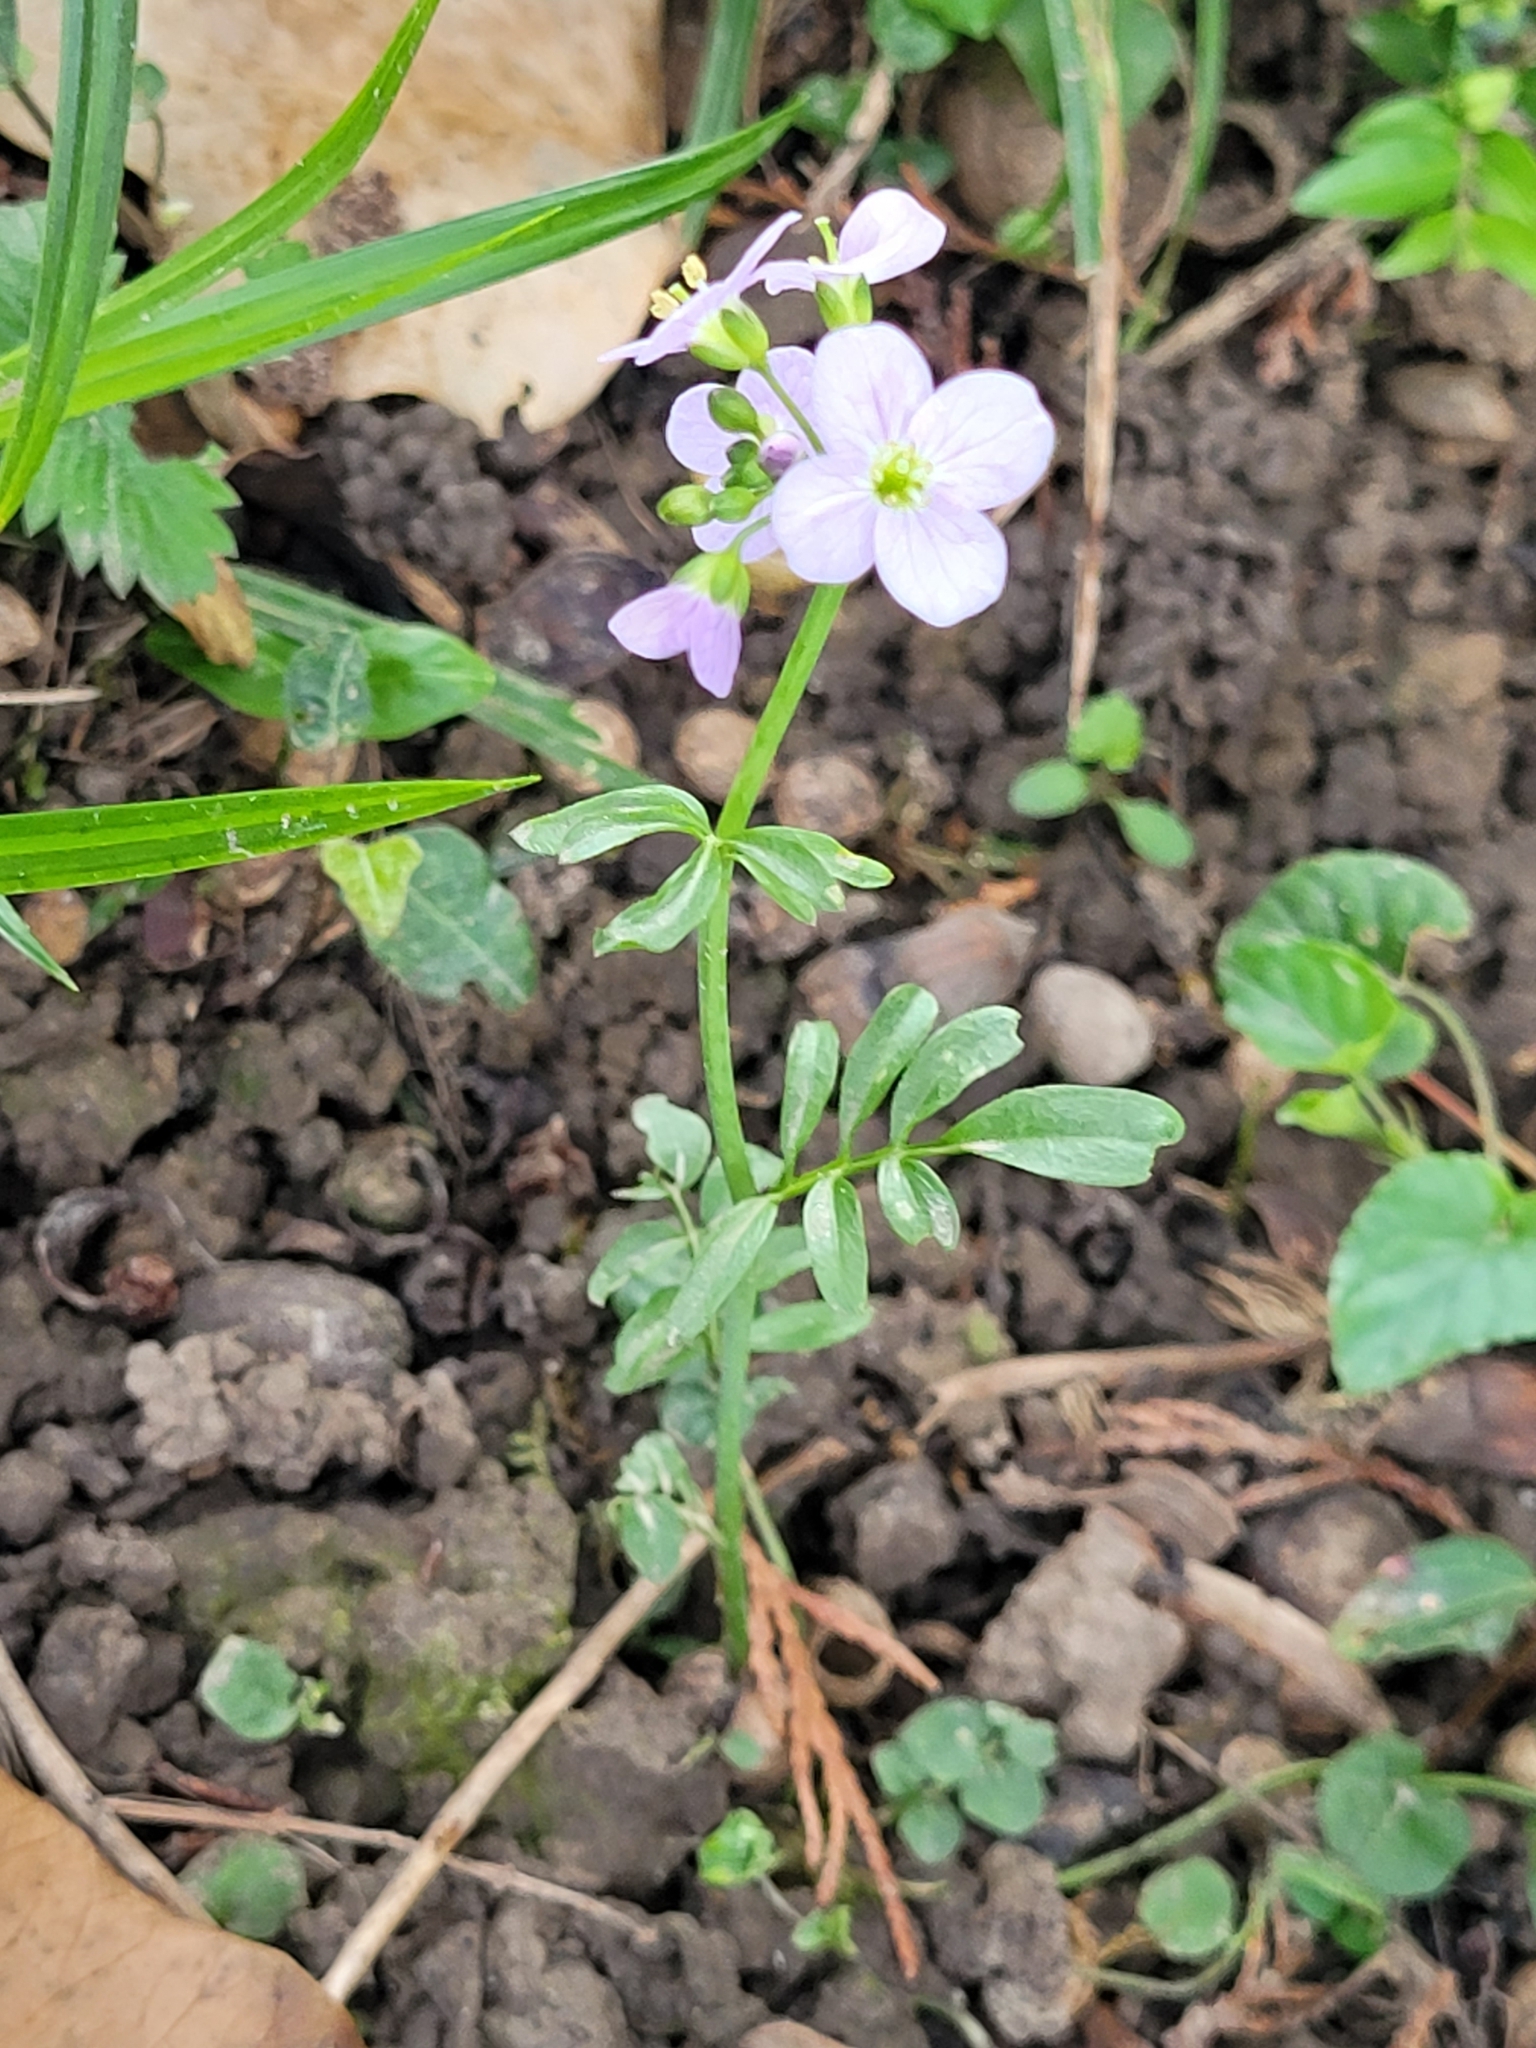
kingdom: Plantae
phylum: Tracheophyta
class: Magnoliopsida
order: Brassicales
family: Brassicaceae
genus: Cardamine
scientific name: Cardamine pratensis
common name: Cuckoo flower
